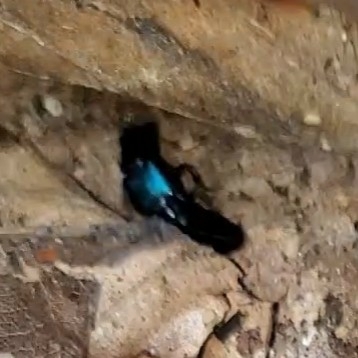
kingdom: Animalia
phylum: Arthropoda
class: Insecta
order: Coleoptera
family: Staphylinidae
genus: Philonthus
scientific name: Philonthus caeruleipennis
